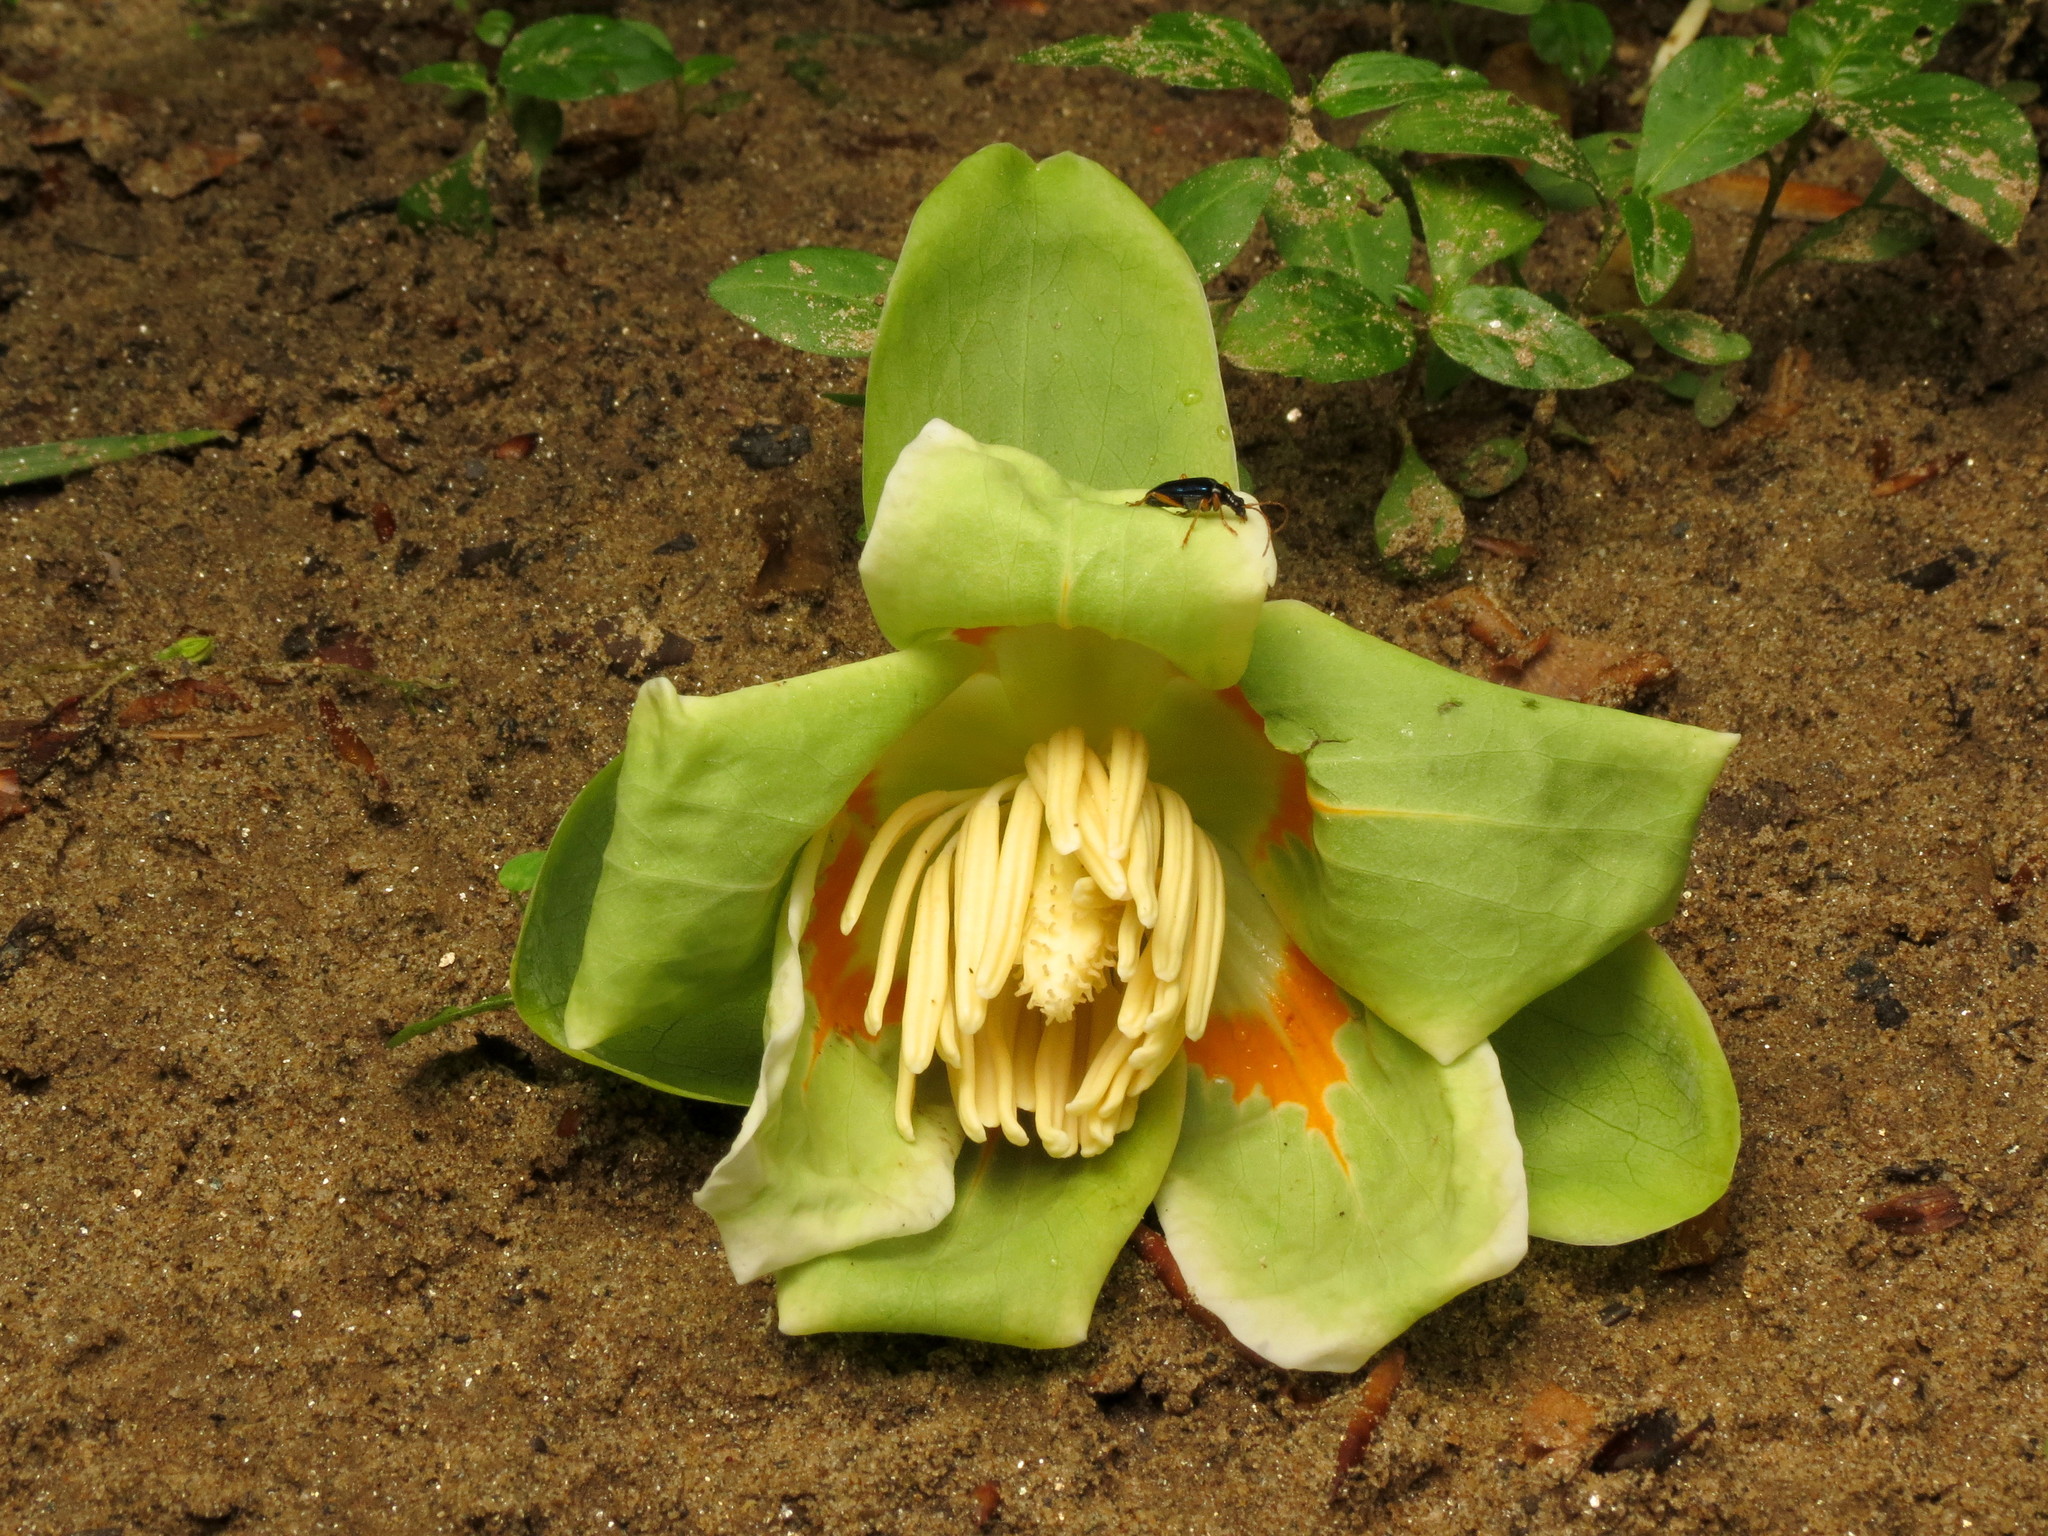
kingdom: Plantae
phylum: Tracheophyta
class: Magnoliopsida
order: Magnoliales
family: Magnoliaceae
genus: Liriodendron
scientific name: Liriodendron tulipifera
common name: Tulip tree
